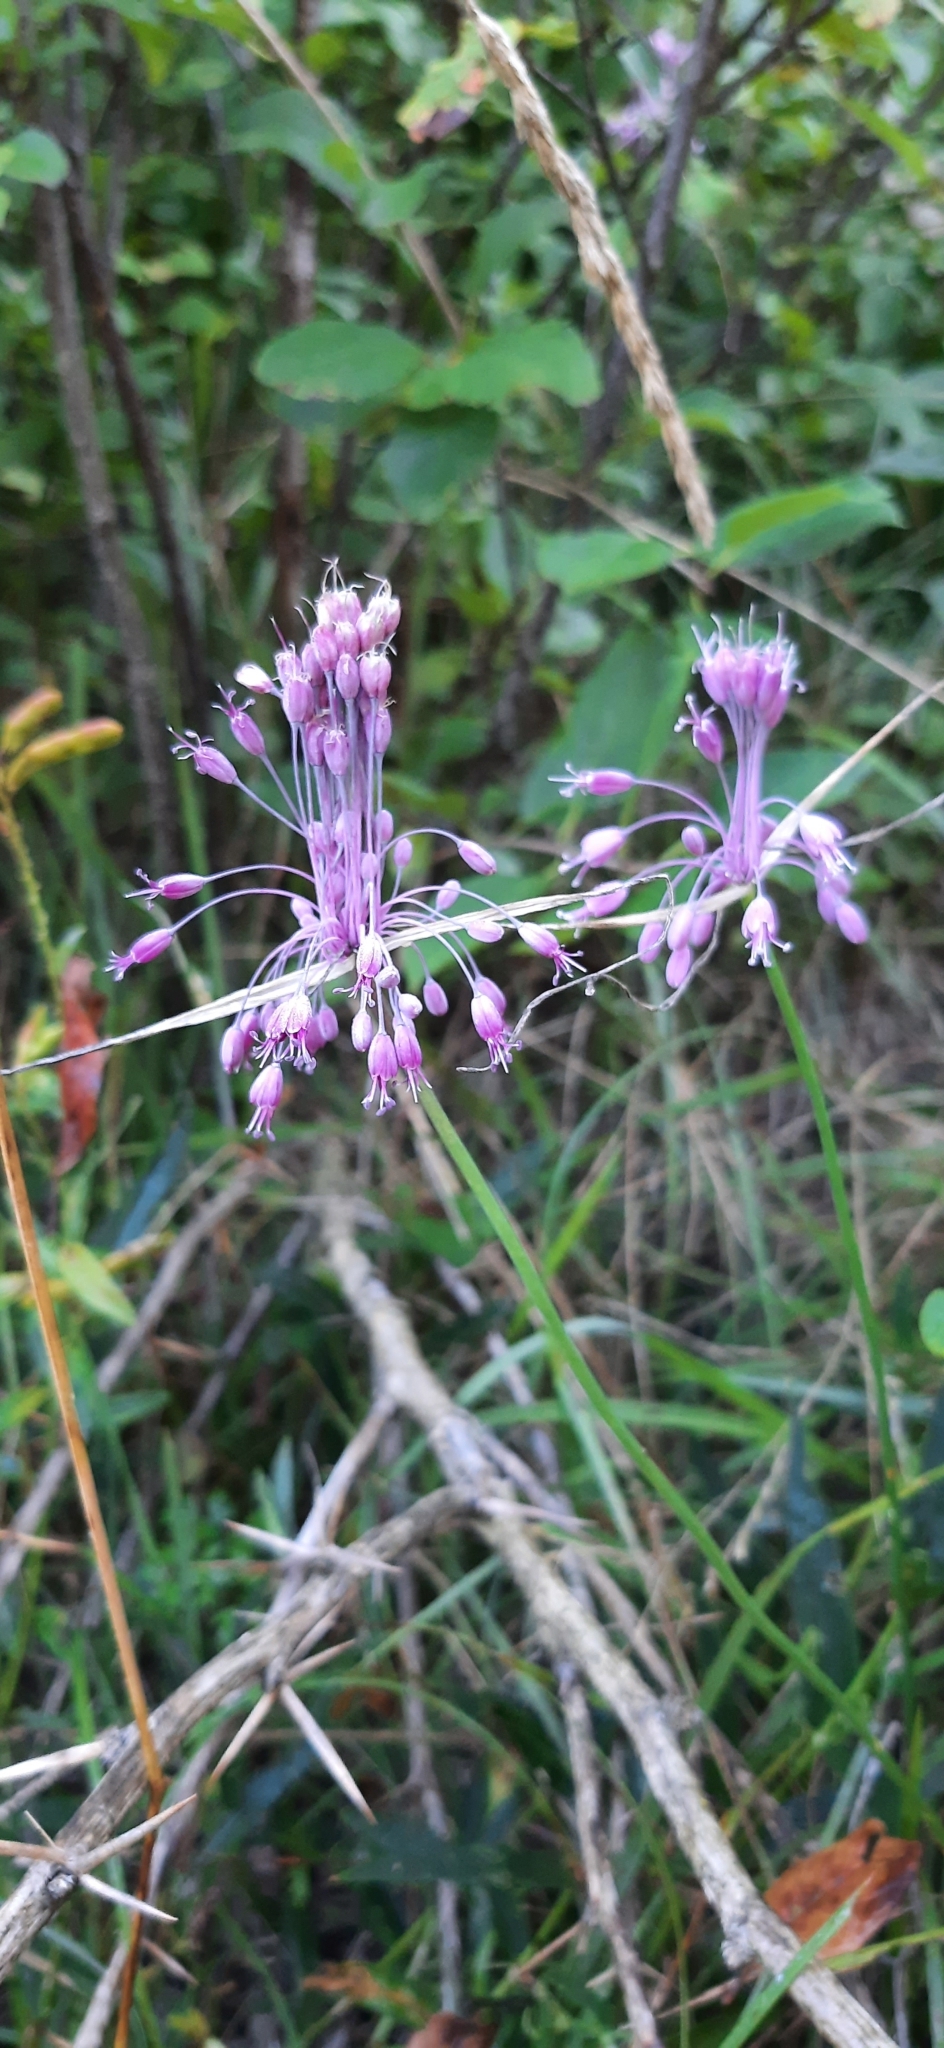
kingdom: Plantae
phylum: Tracheophyta
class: Liliopsida
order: Asparagales
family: Amaryllidaceae
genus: Allium
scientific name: Allium coloratum
